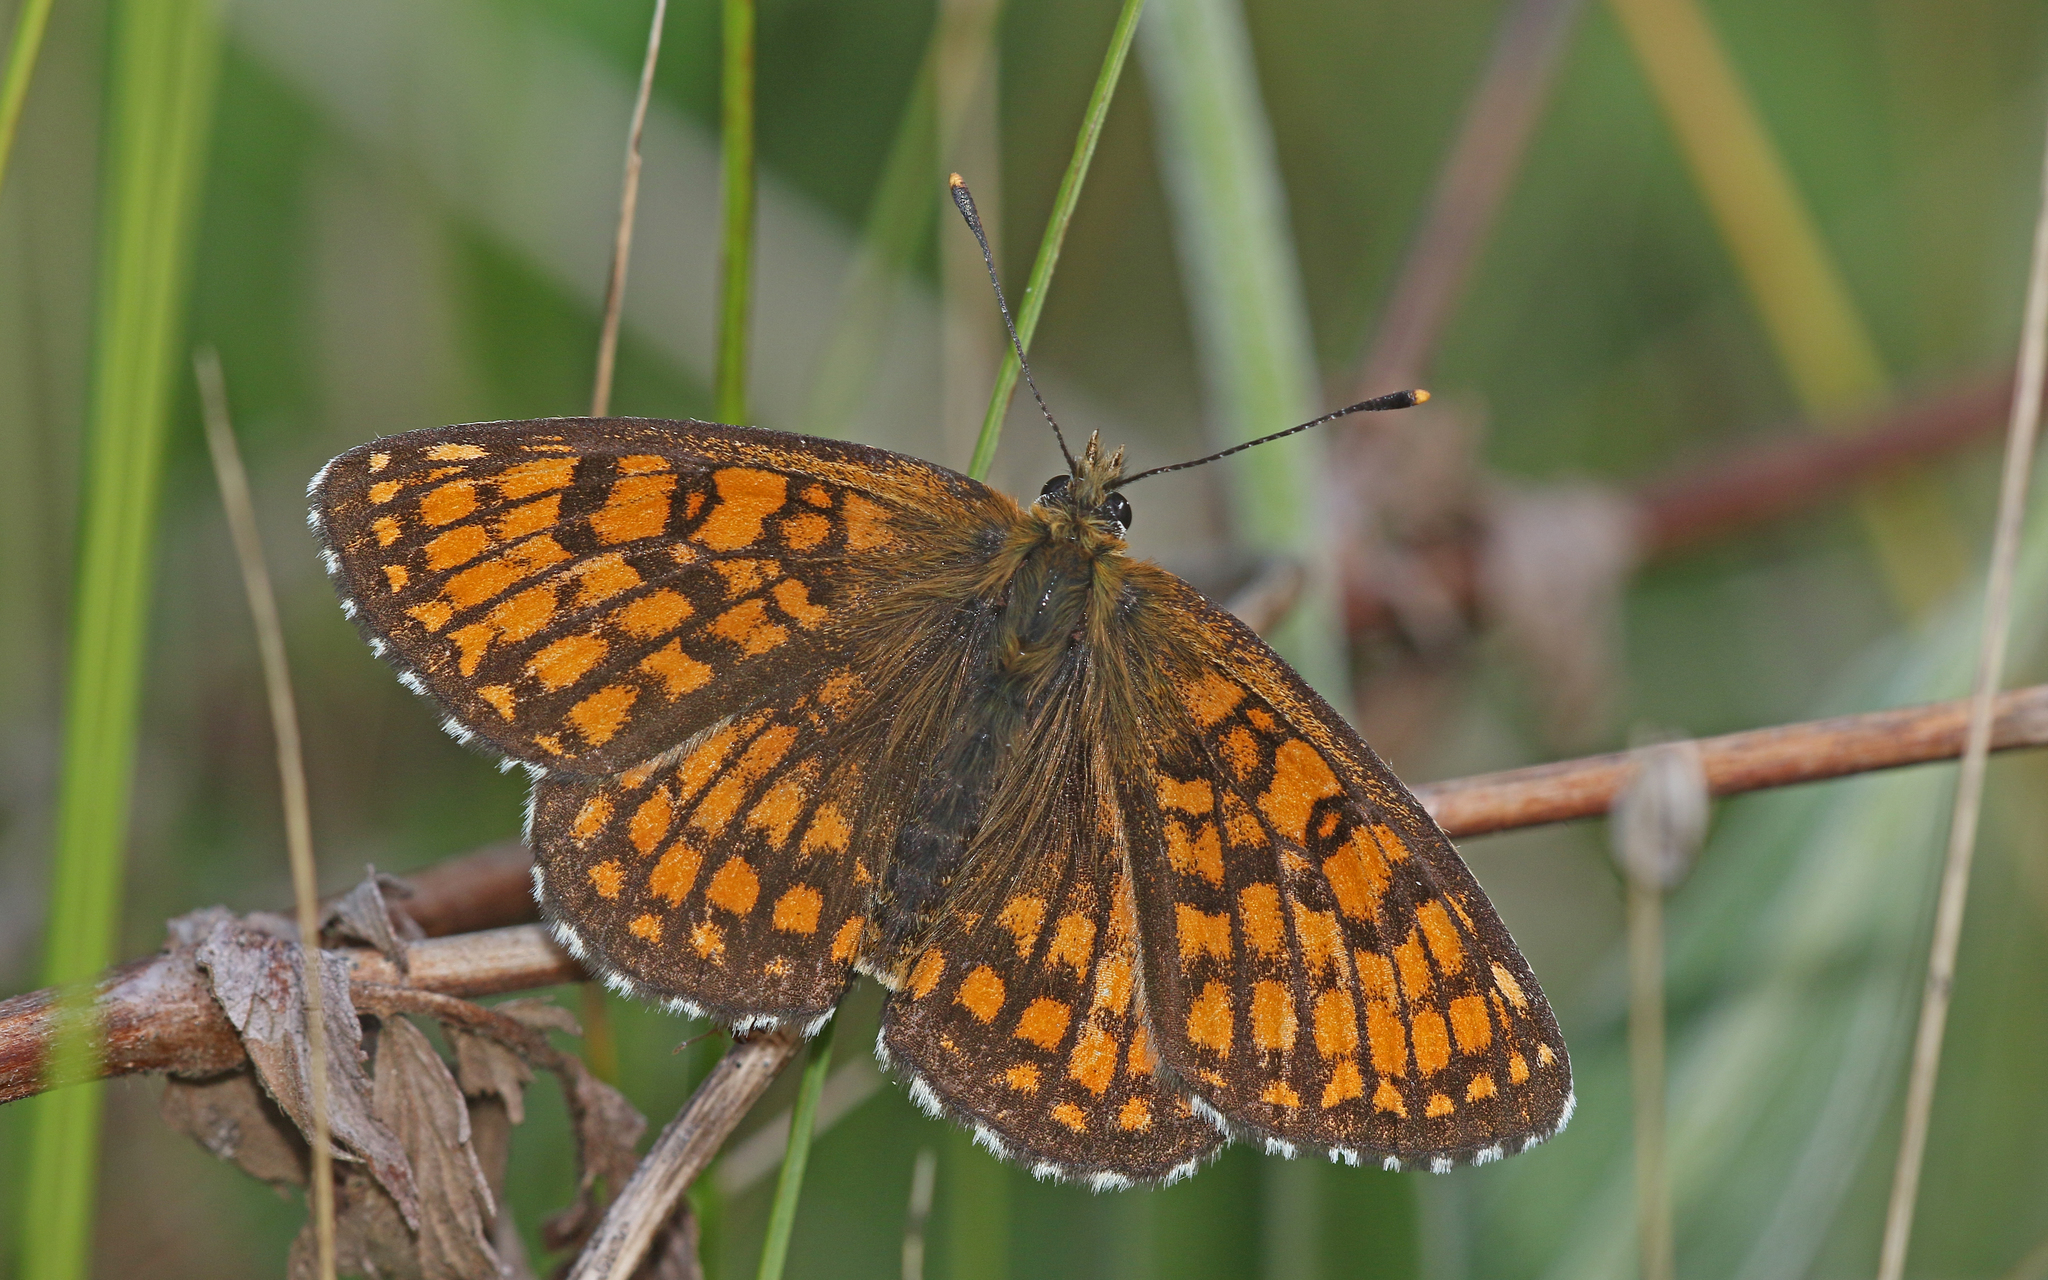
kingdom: Animalia
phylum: Arthropoda
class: Insecta
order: Lepidoptera
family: Nymphalidae
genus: Melitaea
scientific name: Melitaea athalia
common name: Heath fritillary
